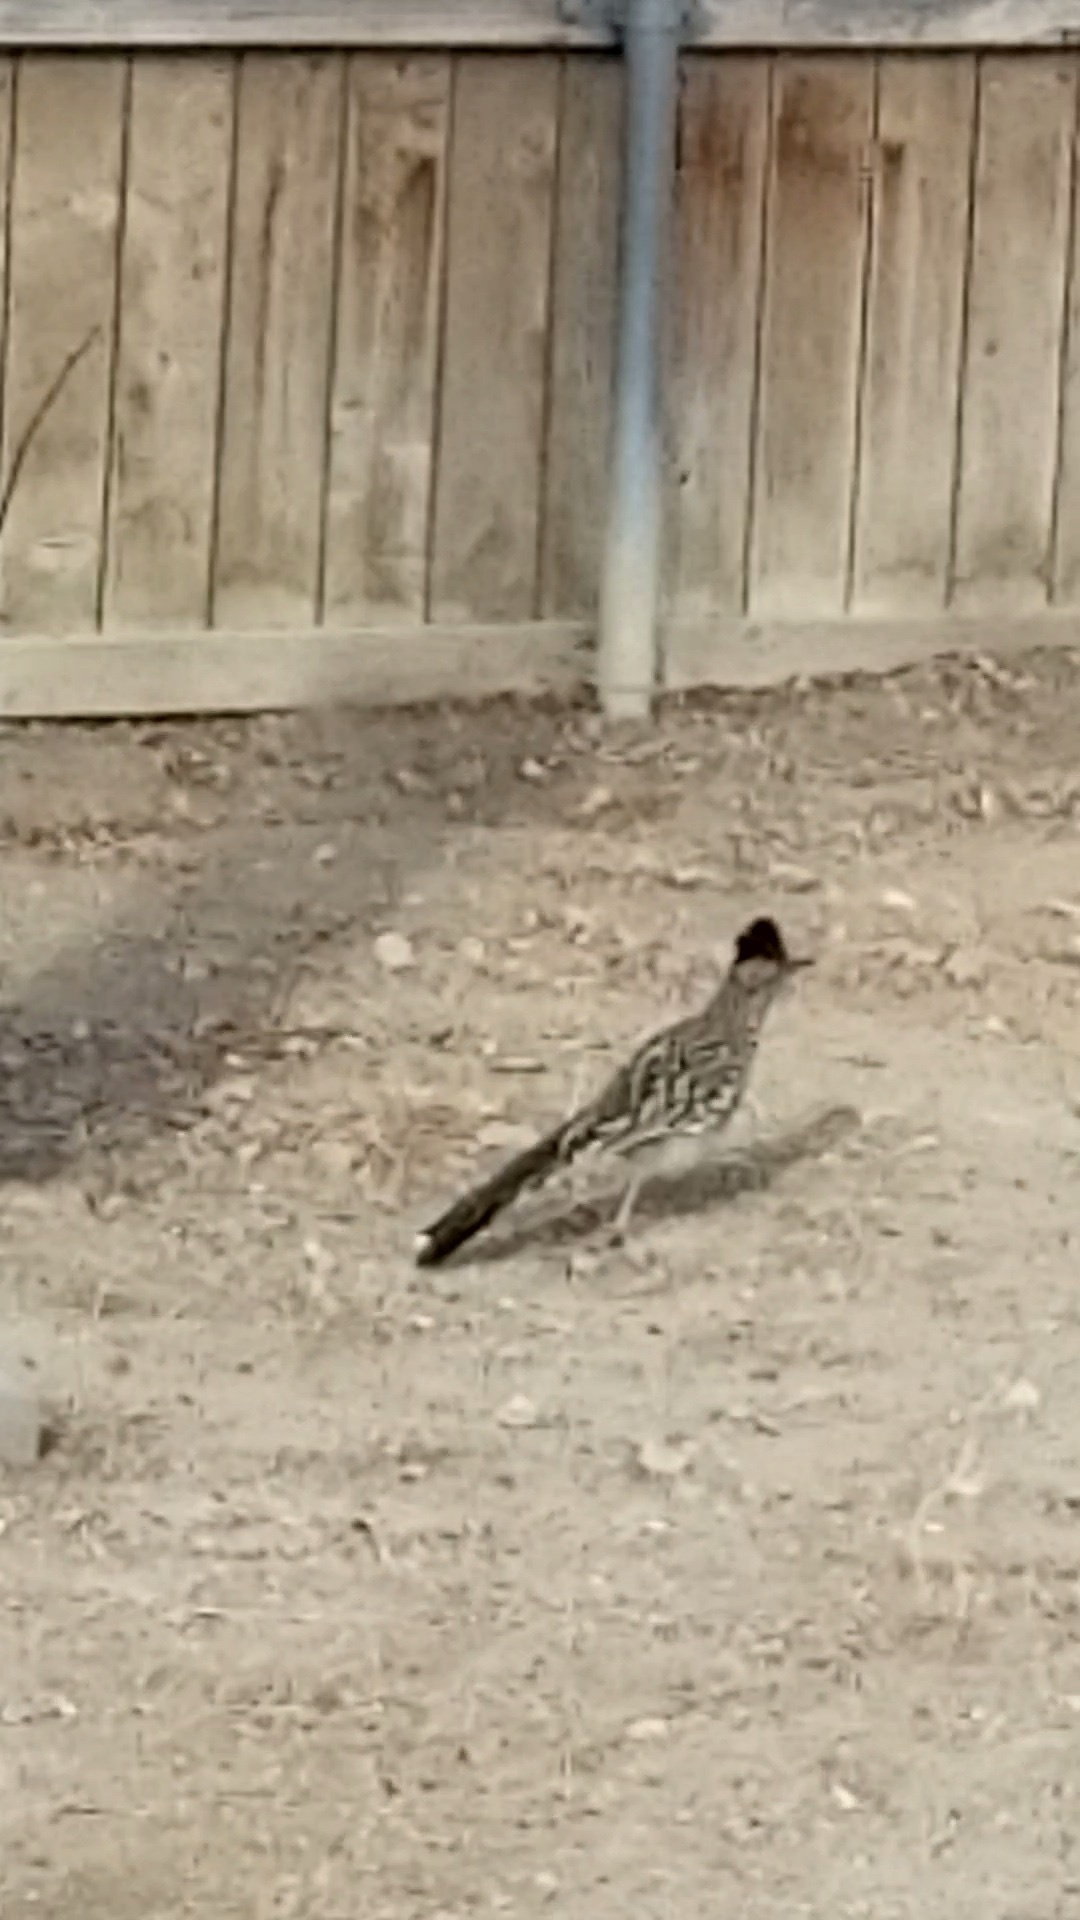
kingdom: Animalia
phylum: Chordata
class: Aves
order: Cuculiformes
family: Cuculidae
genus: Geococcyx
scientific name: Geococcyx californianus
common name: Greater roadrunner
